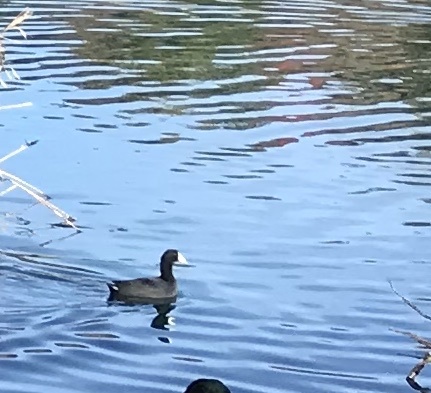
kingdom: Animalia
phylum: Chordata
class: Aves
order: Gruiformes
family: Rallidae
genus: Fulica
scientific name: Fulica americana
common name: American coot
